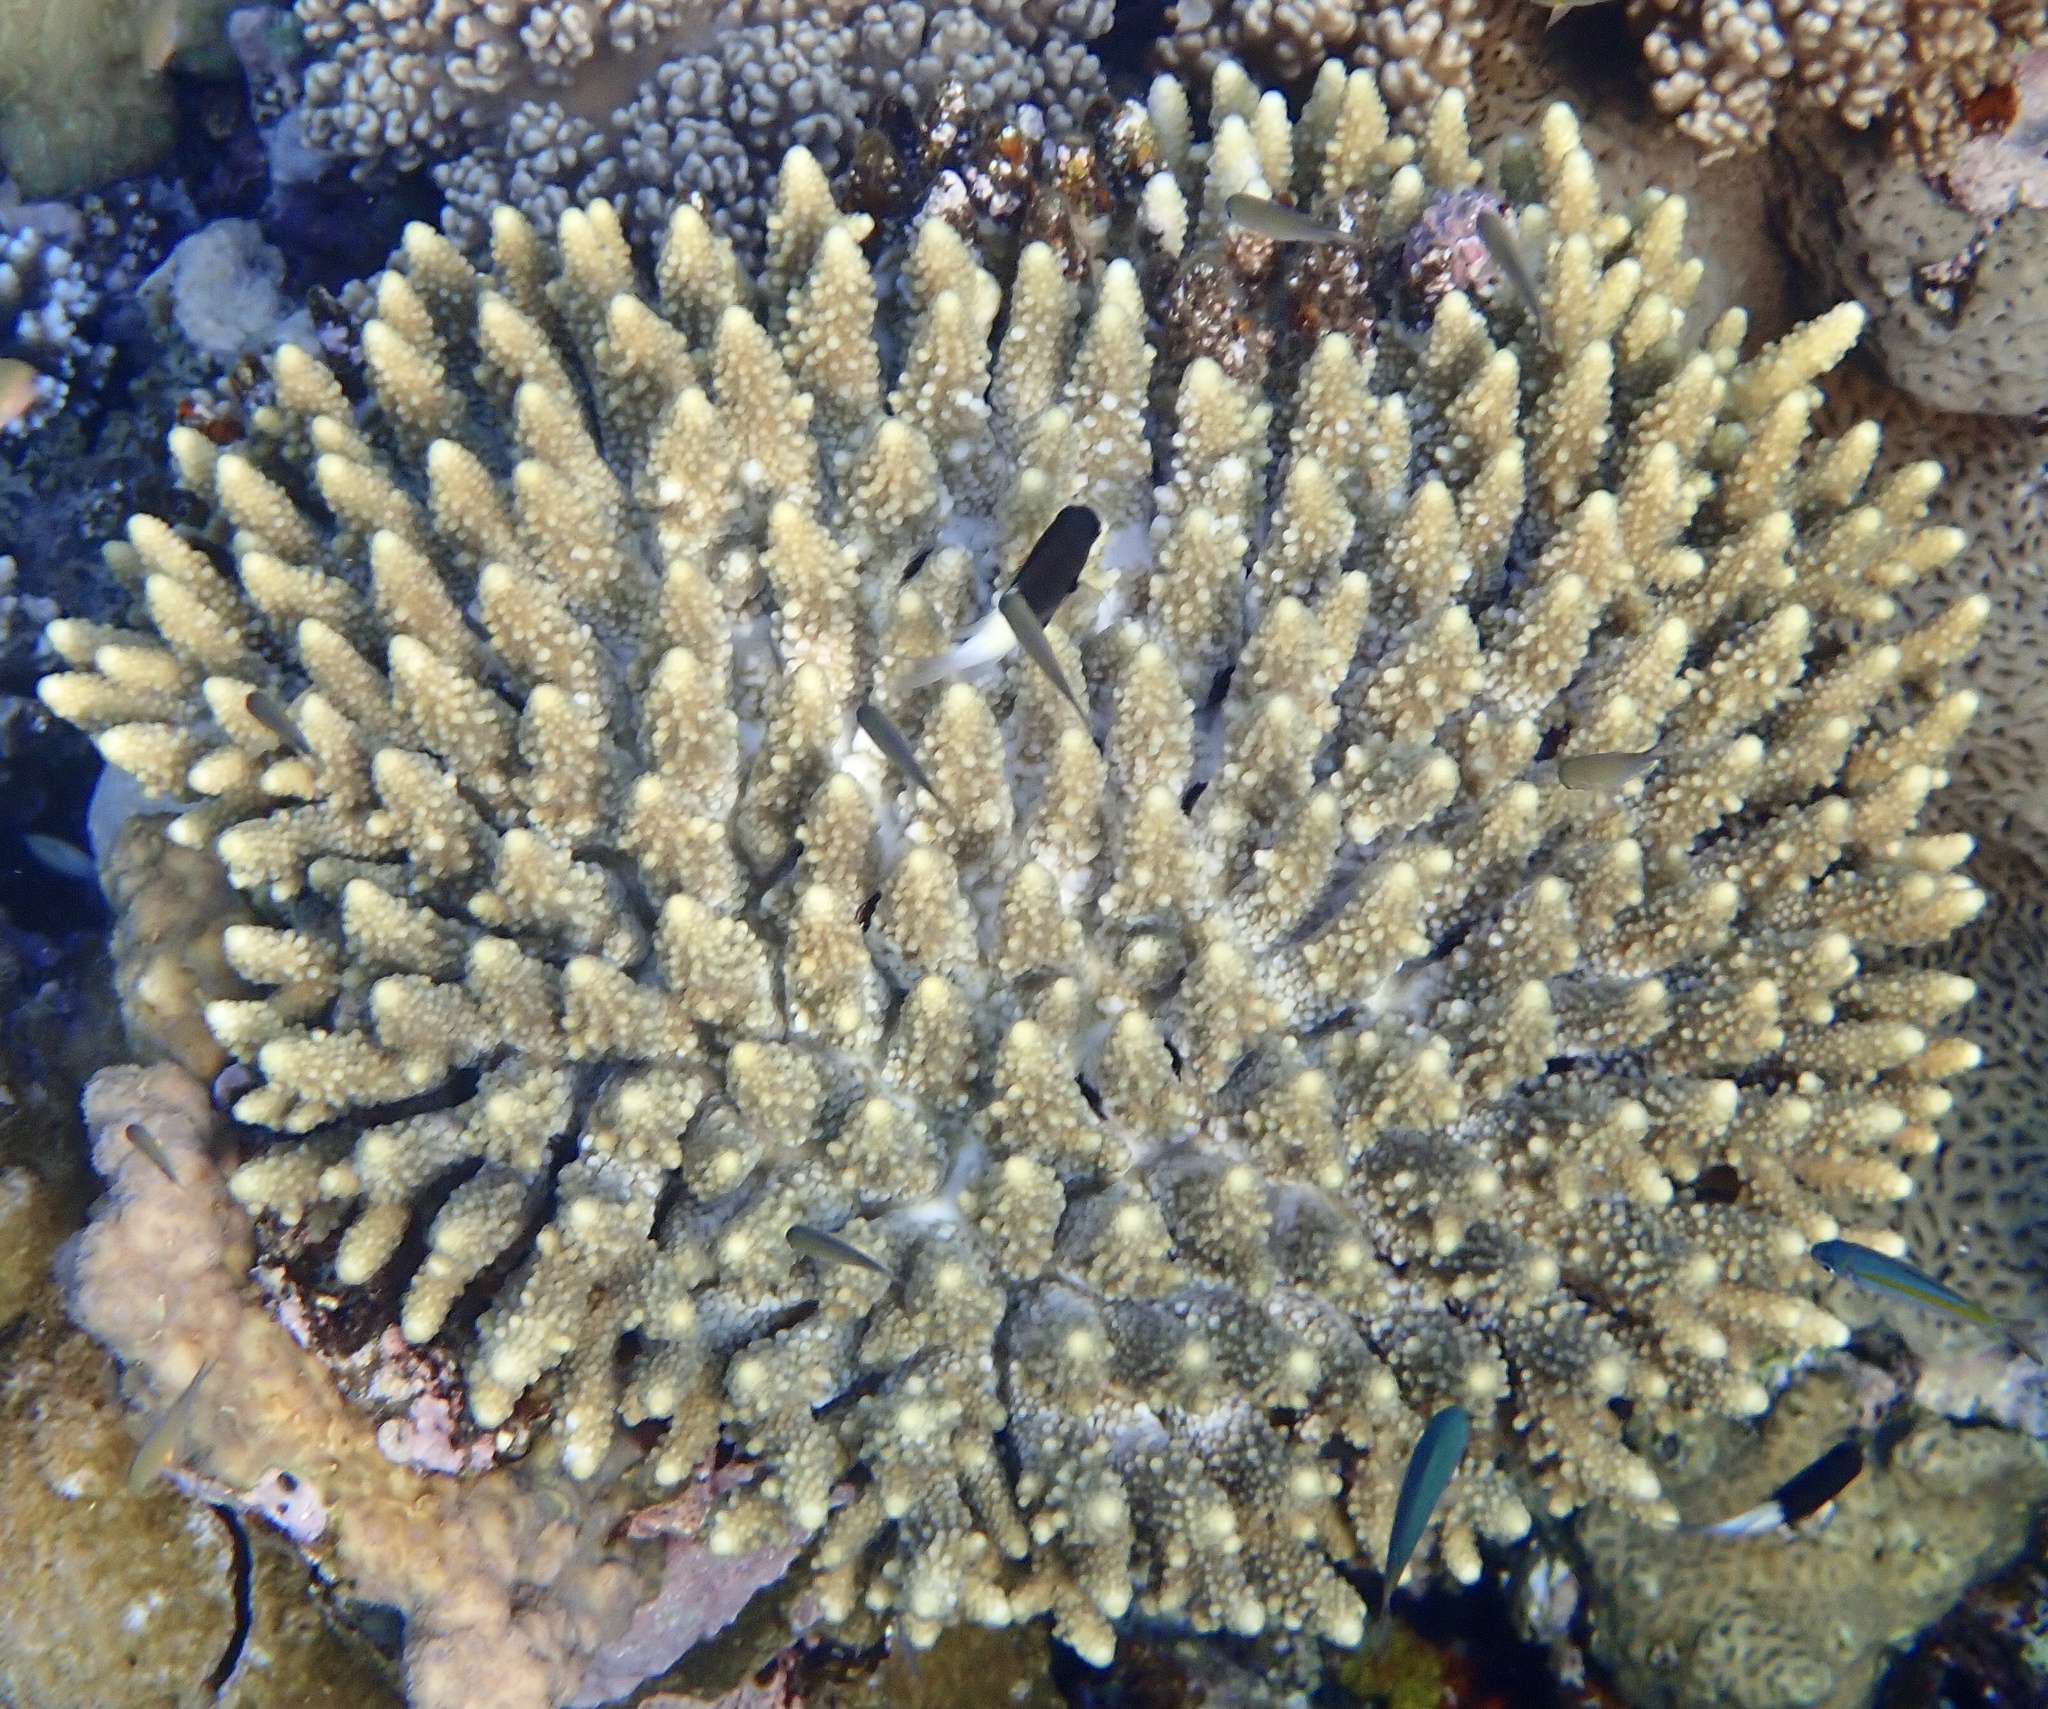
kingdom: Animalia
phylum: Cnidaria
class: Anthozoa
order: Scleractinia
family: Acroporidae
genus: Acropora
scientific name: Acropora gemmifera
